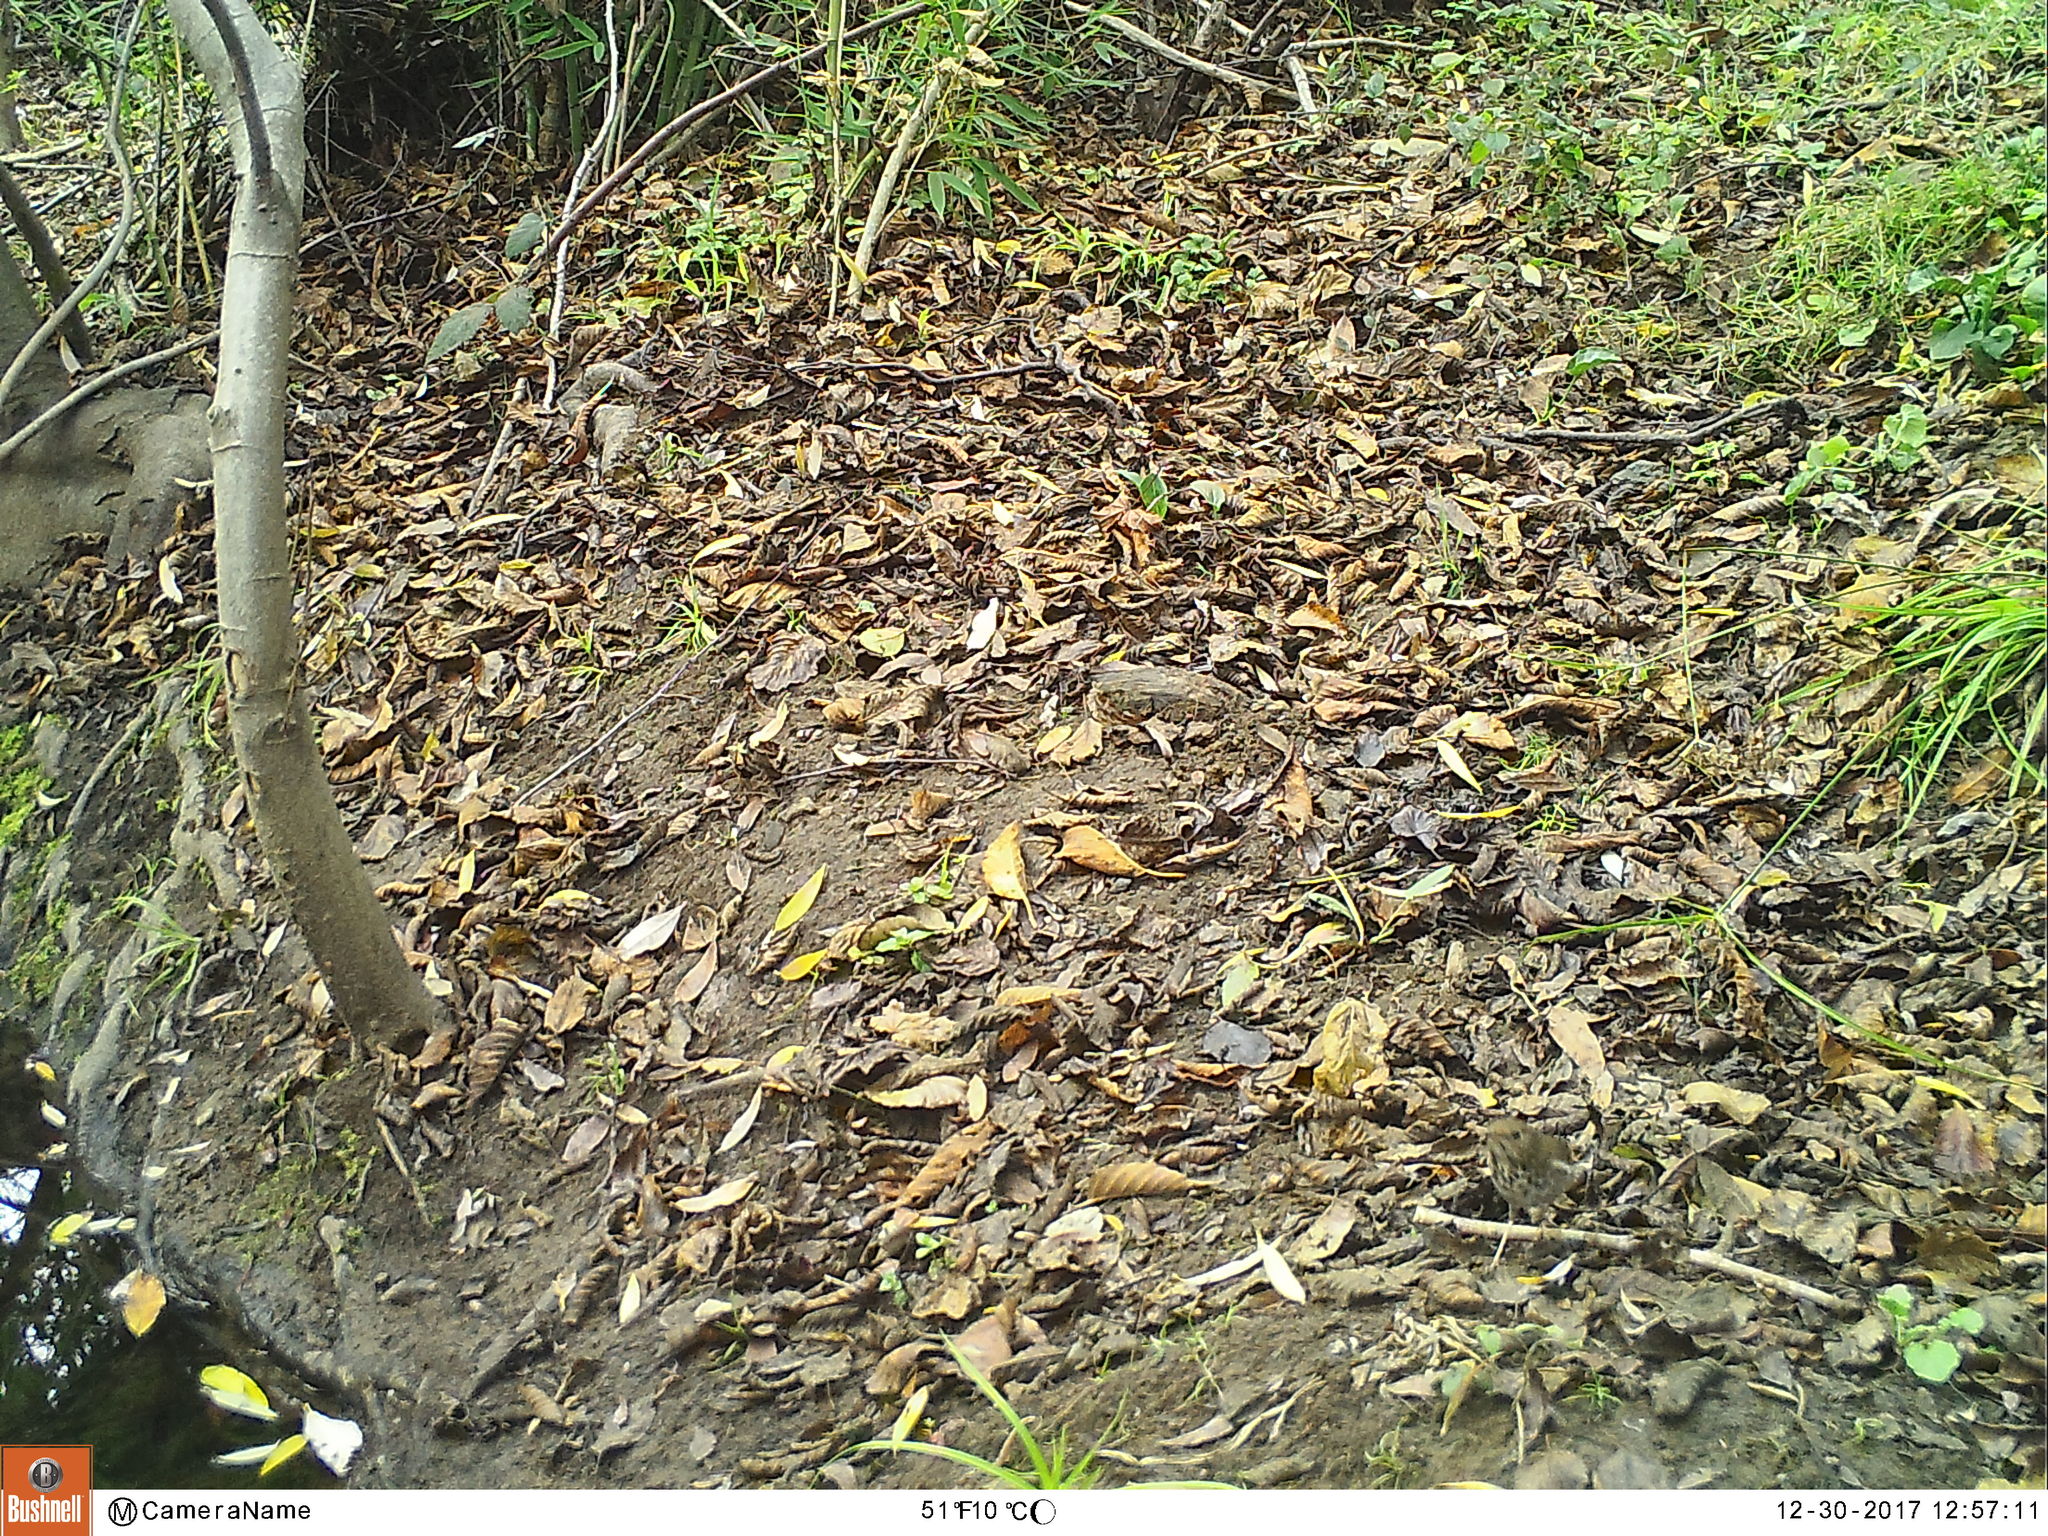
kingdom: Animalia
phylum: Chordata
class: Aves
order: Passeriformes
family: Turdidae
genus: Catharus
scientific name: Catharus guttatus
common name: Hermit thrush
